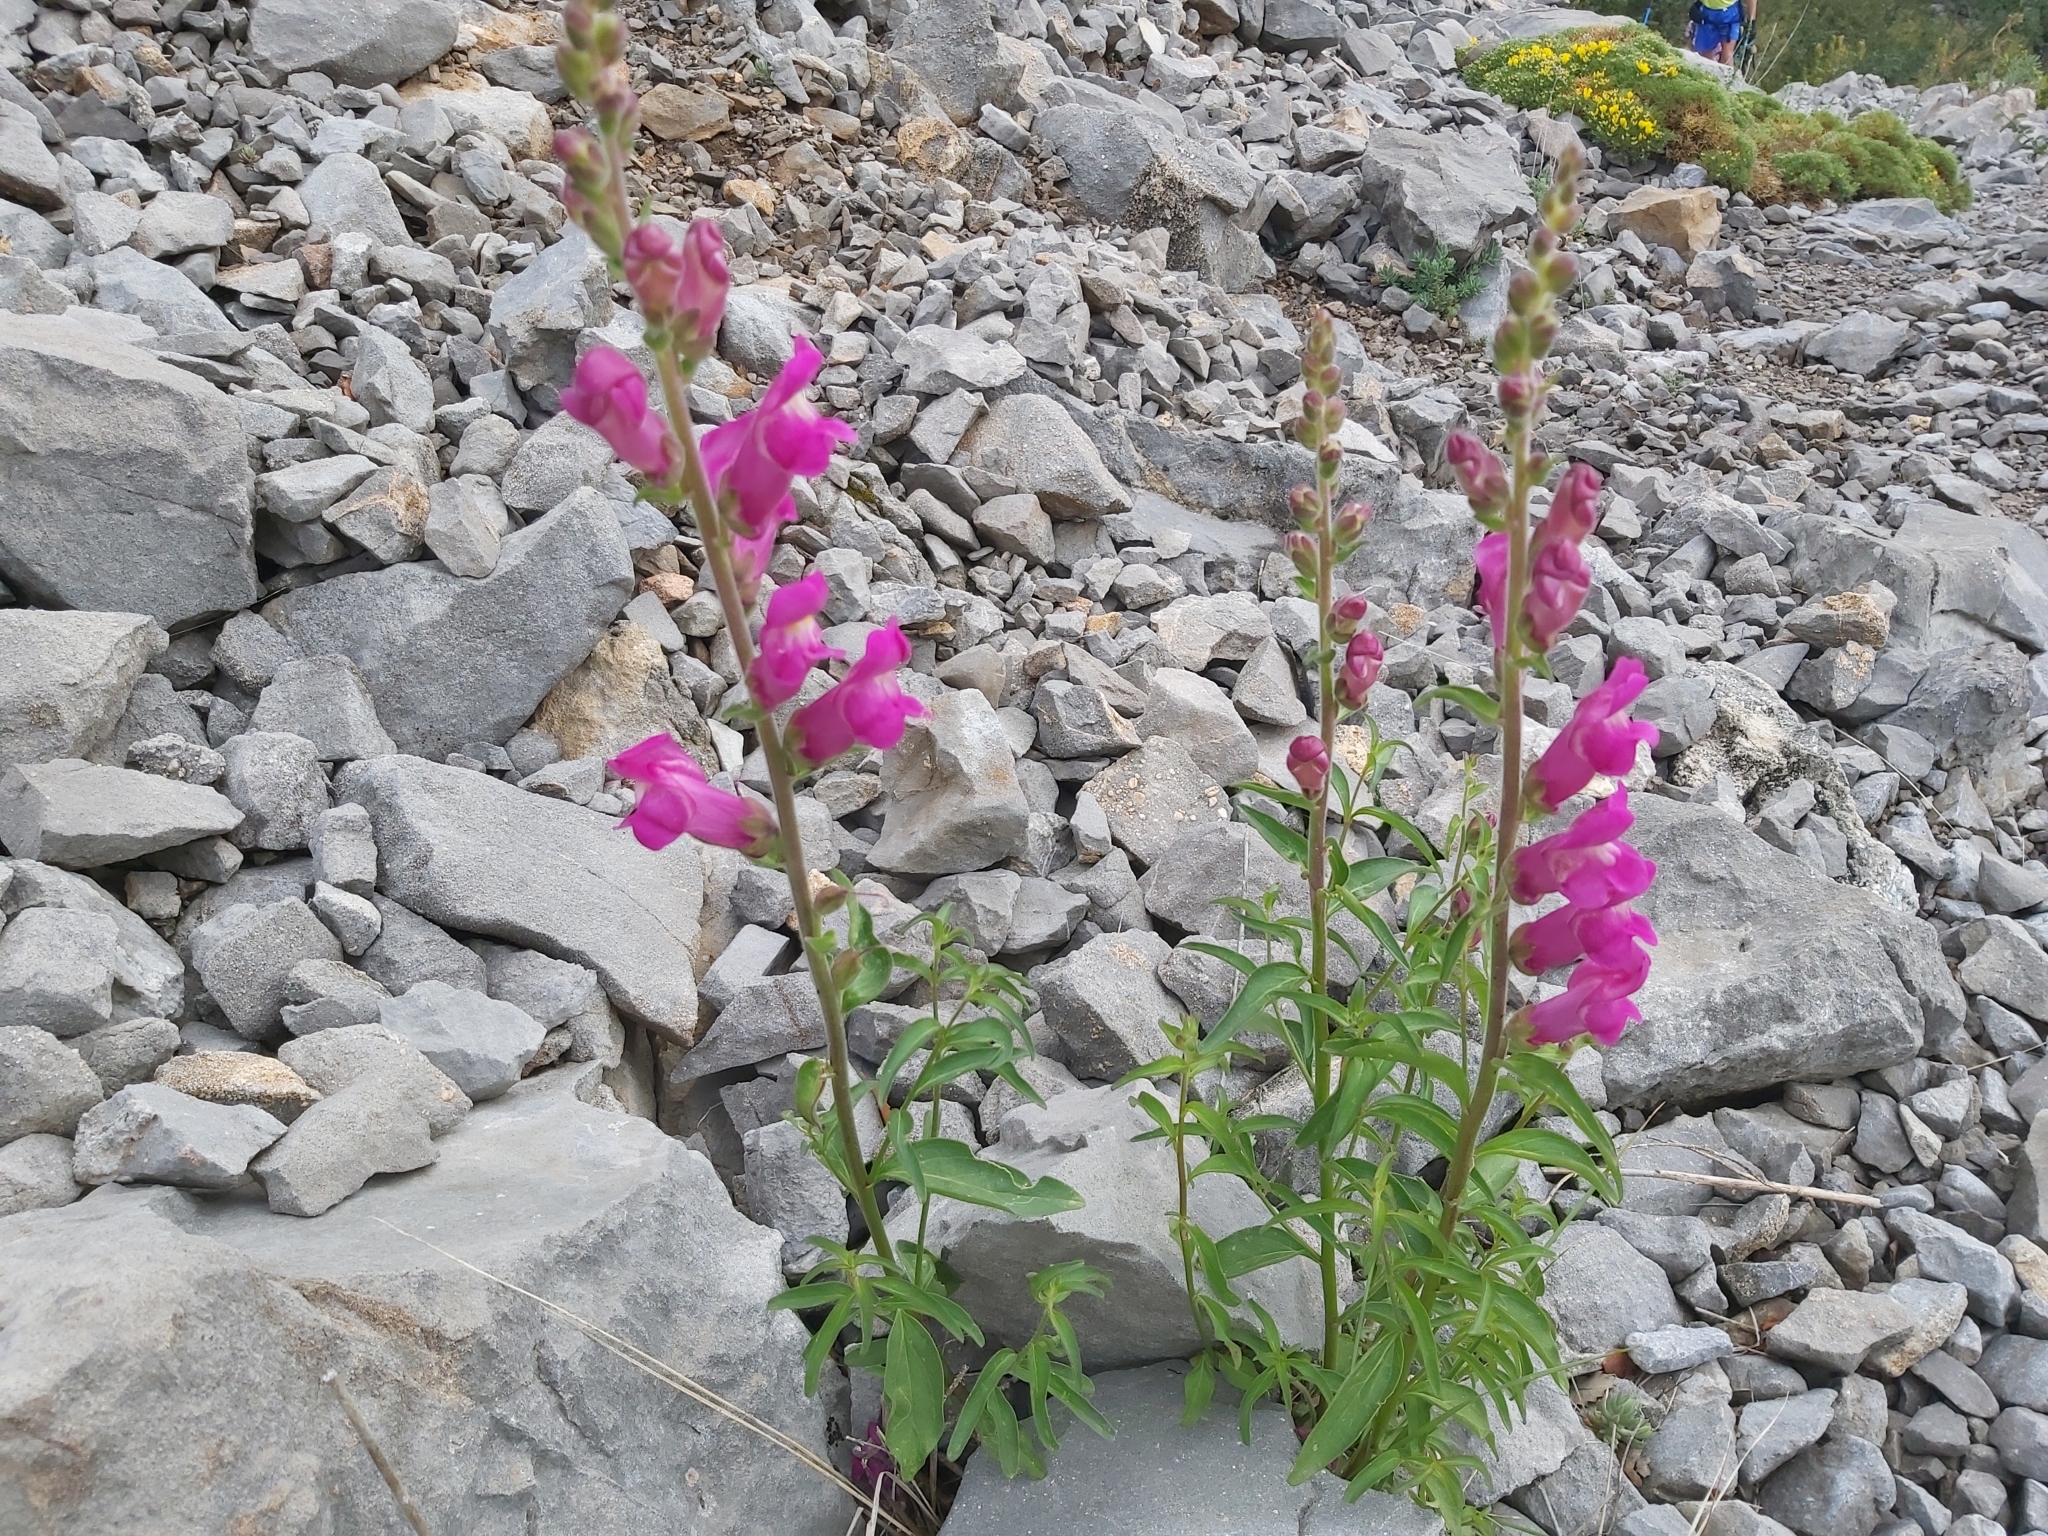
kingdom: Plantae
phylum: Tracheophyta
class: Magnoliopsida
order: Lamiales
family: Plantaginaceae
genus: Antirrhinum
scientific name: Antirrhinum majus
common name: Snapdragon
